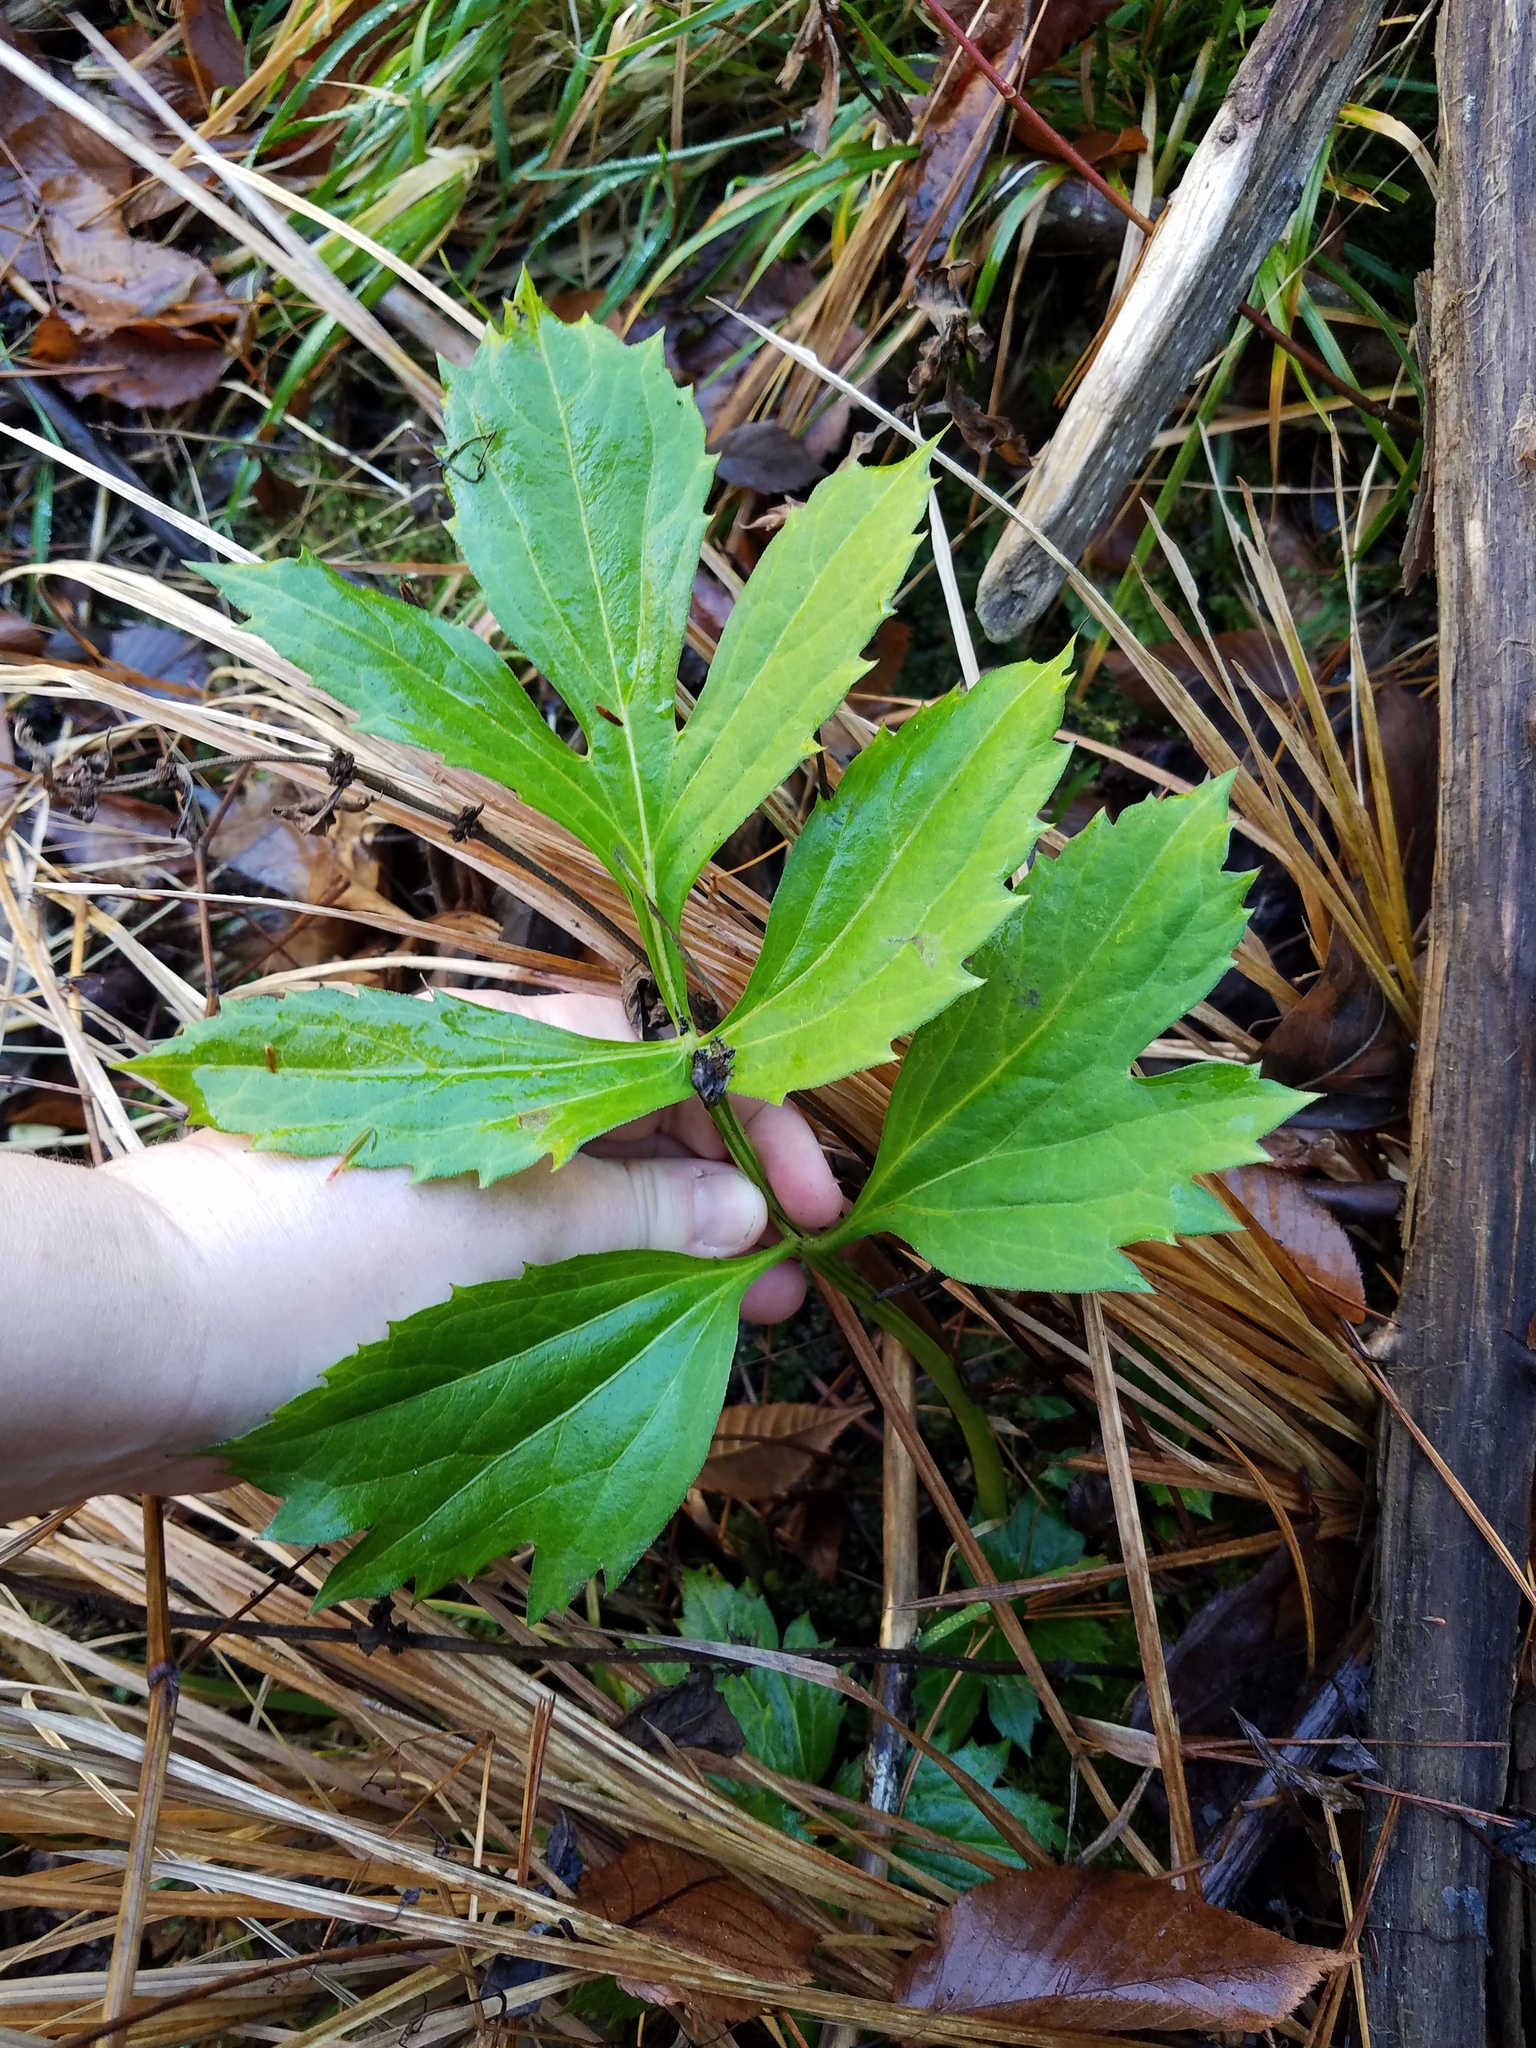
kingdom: Plantae
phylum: Tracheophyta
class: Magnoliopsida
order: Asterales
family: Asteraceae
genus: Rudbeckia
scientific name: Rudbeckia laciniata
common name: Coneflower
